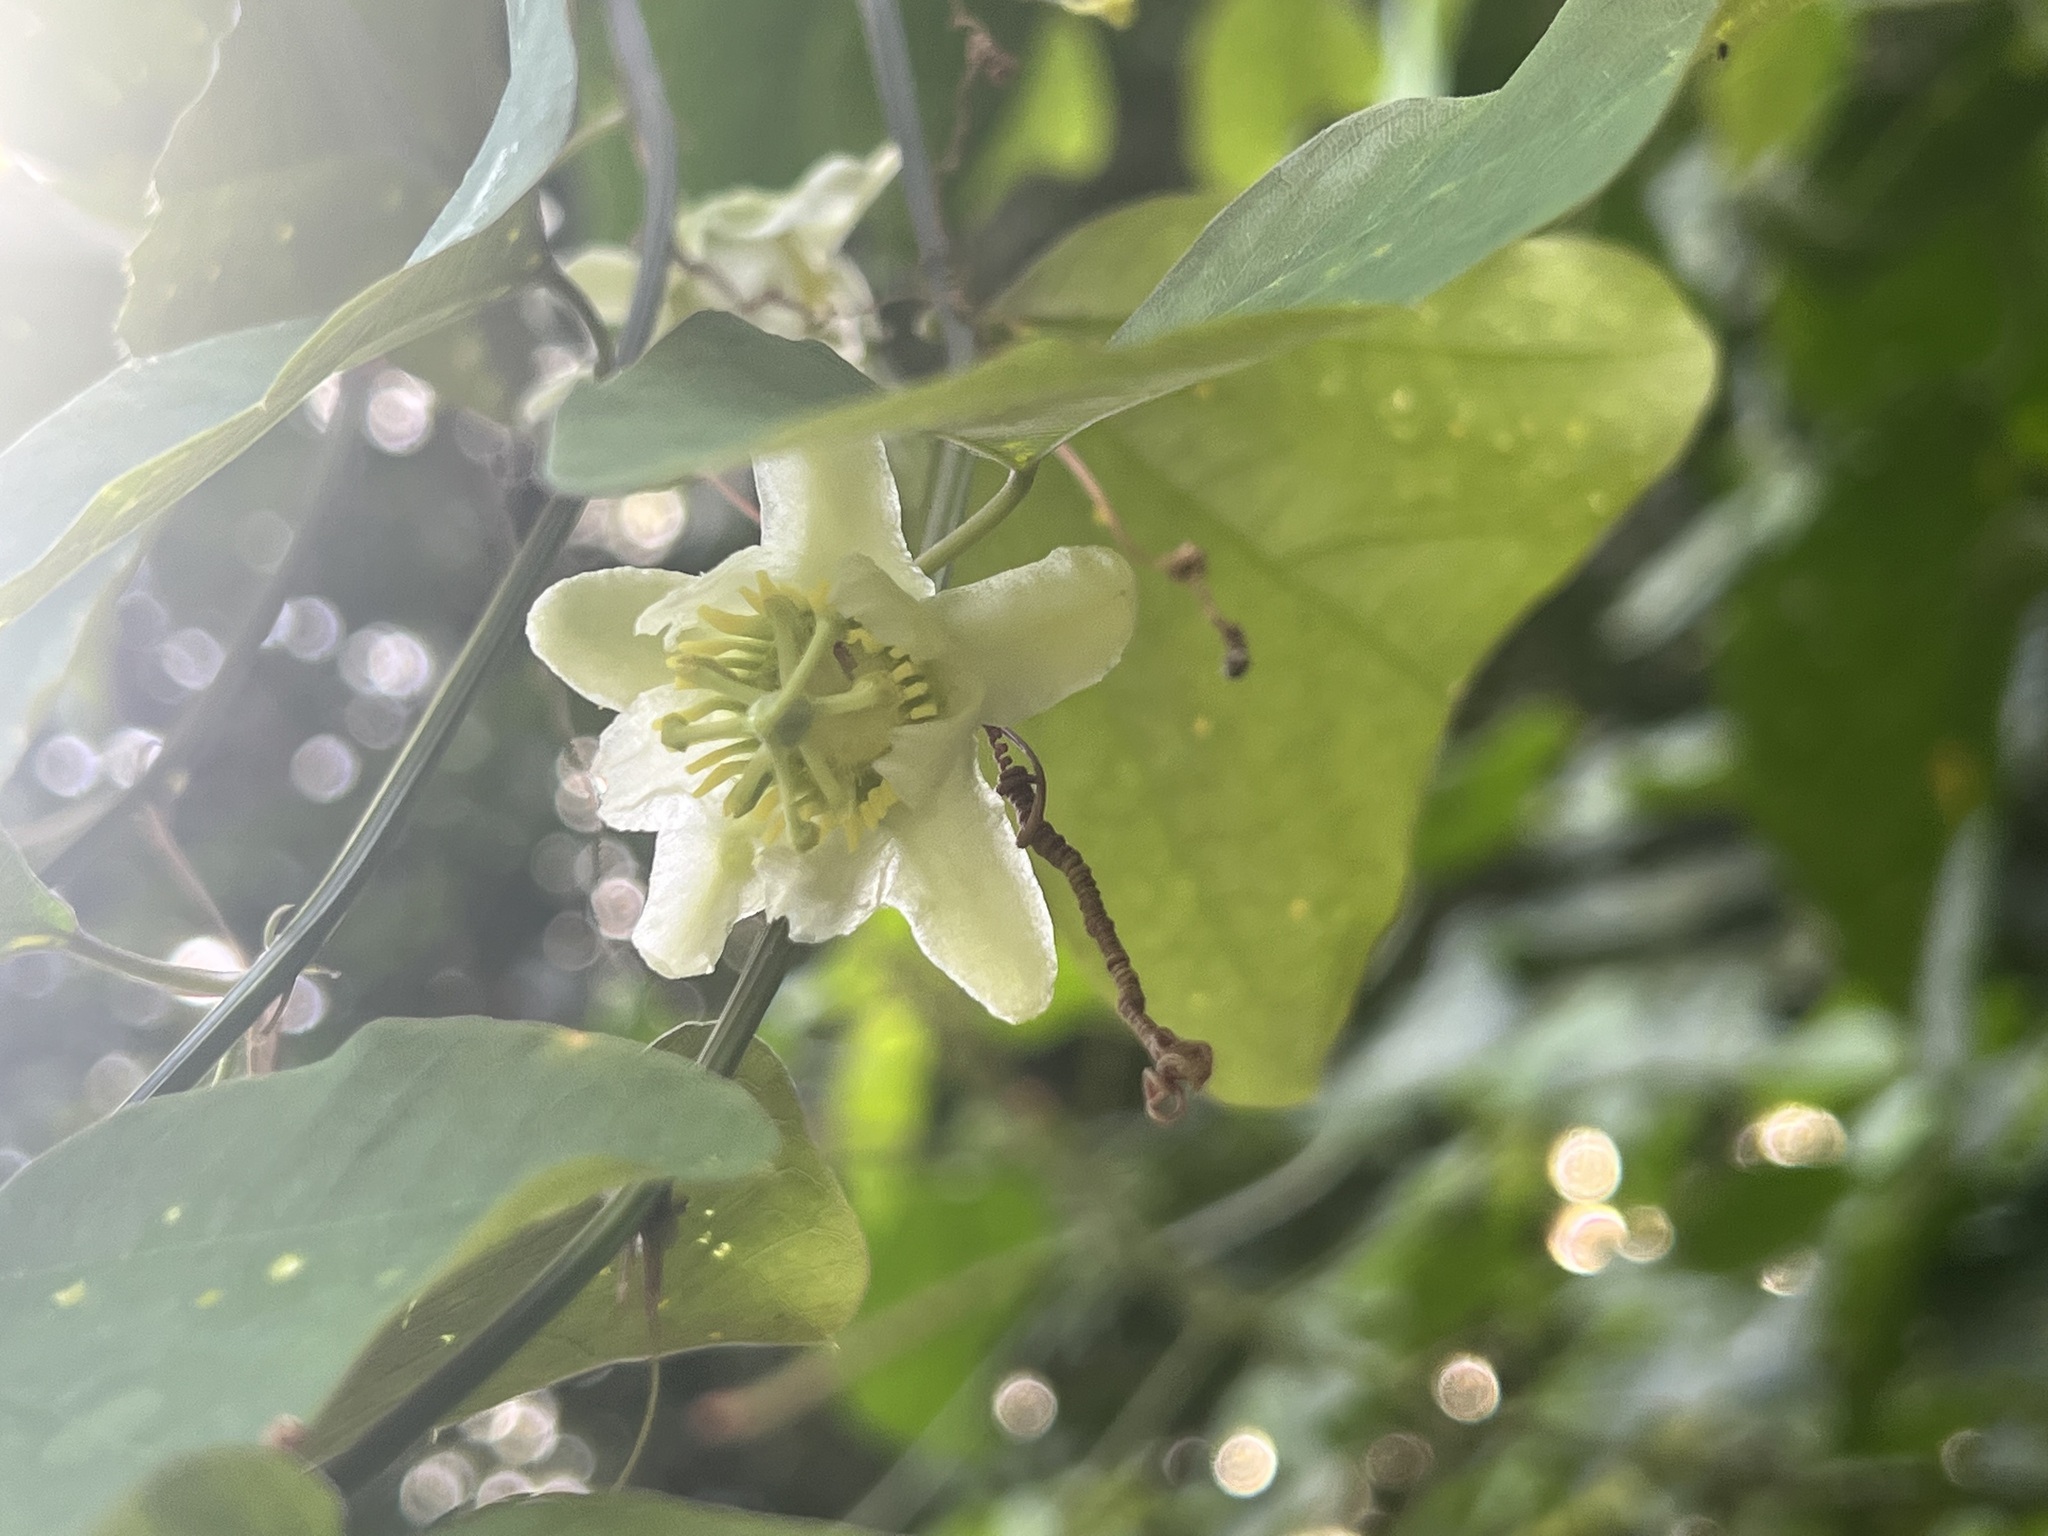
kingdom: Plantae
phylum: Tracheophyta
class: Magnoliopsida
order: Malpighiales
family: Passifloraceae
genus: Passiflora
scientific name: Passiflora biflora
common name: Twoflower passionflower
